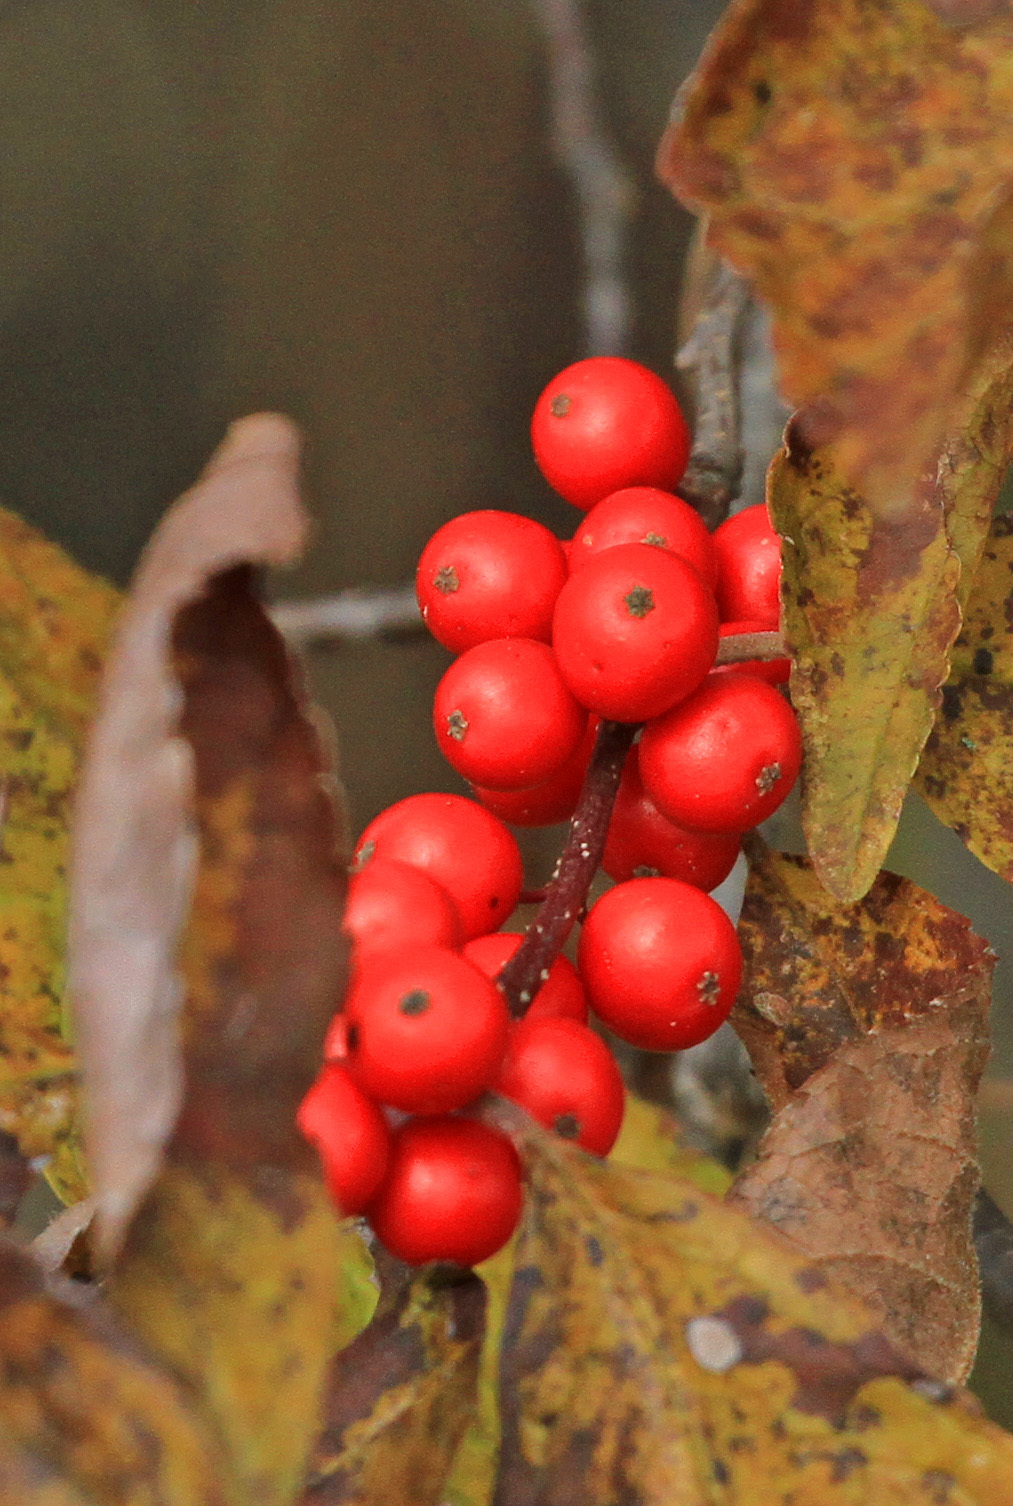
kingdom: Plantae
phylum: Tracheophyta
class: Magnoliopsida
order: Aquifoliales
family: Aquifoliaceae
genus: Ilex
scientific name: Ilex verticillata
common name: Virginia winterberry
